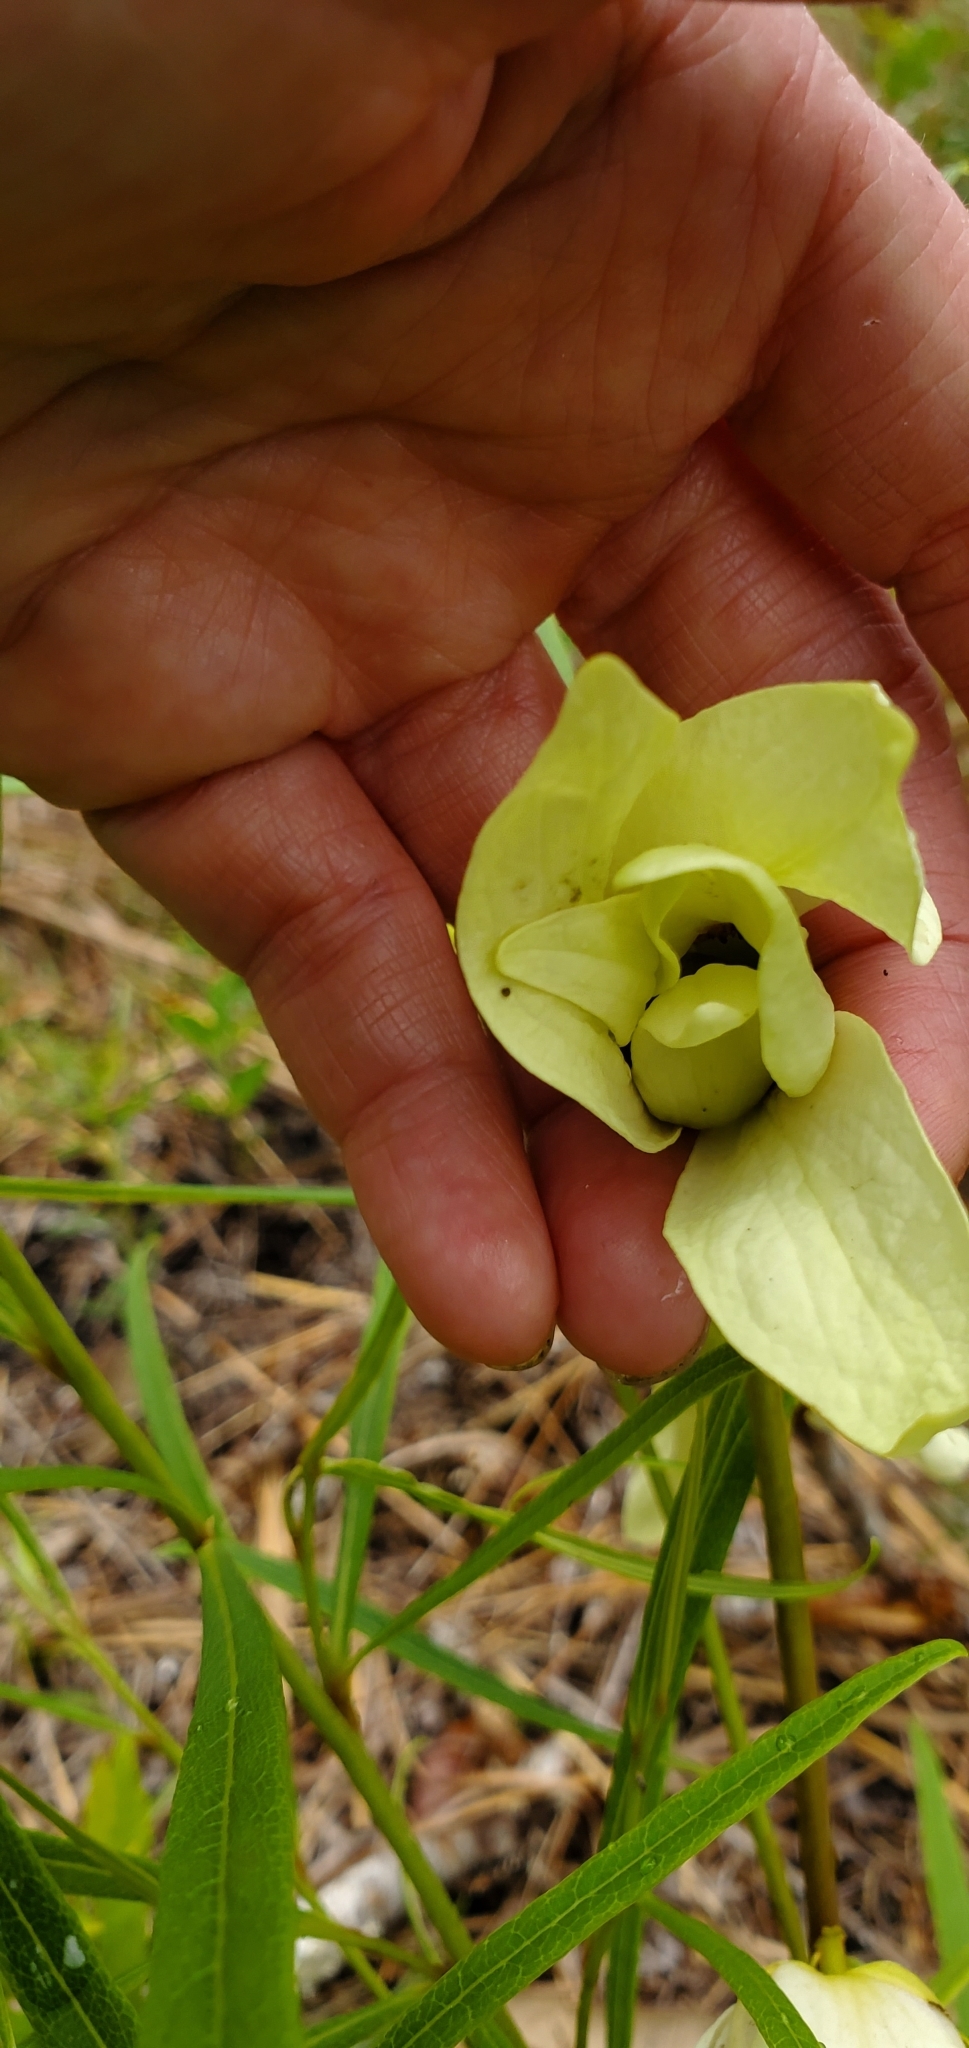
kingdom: Plantae
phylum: Tracheophyta
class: Magnoliopsida
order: Magnoliales
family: Annonaceae
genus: Asimina
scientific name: Asimina longifolia
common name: Polecatbush
